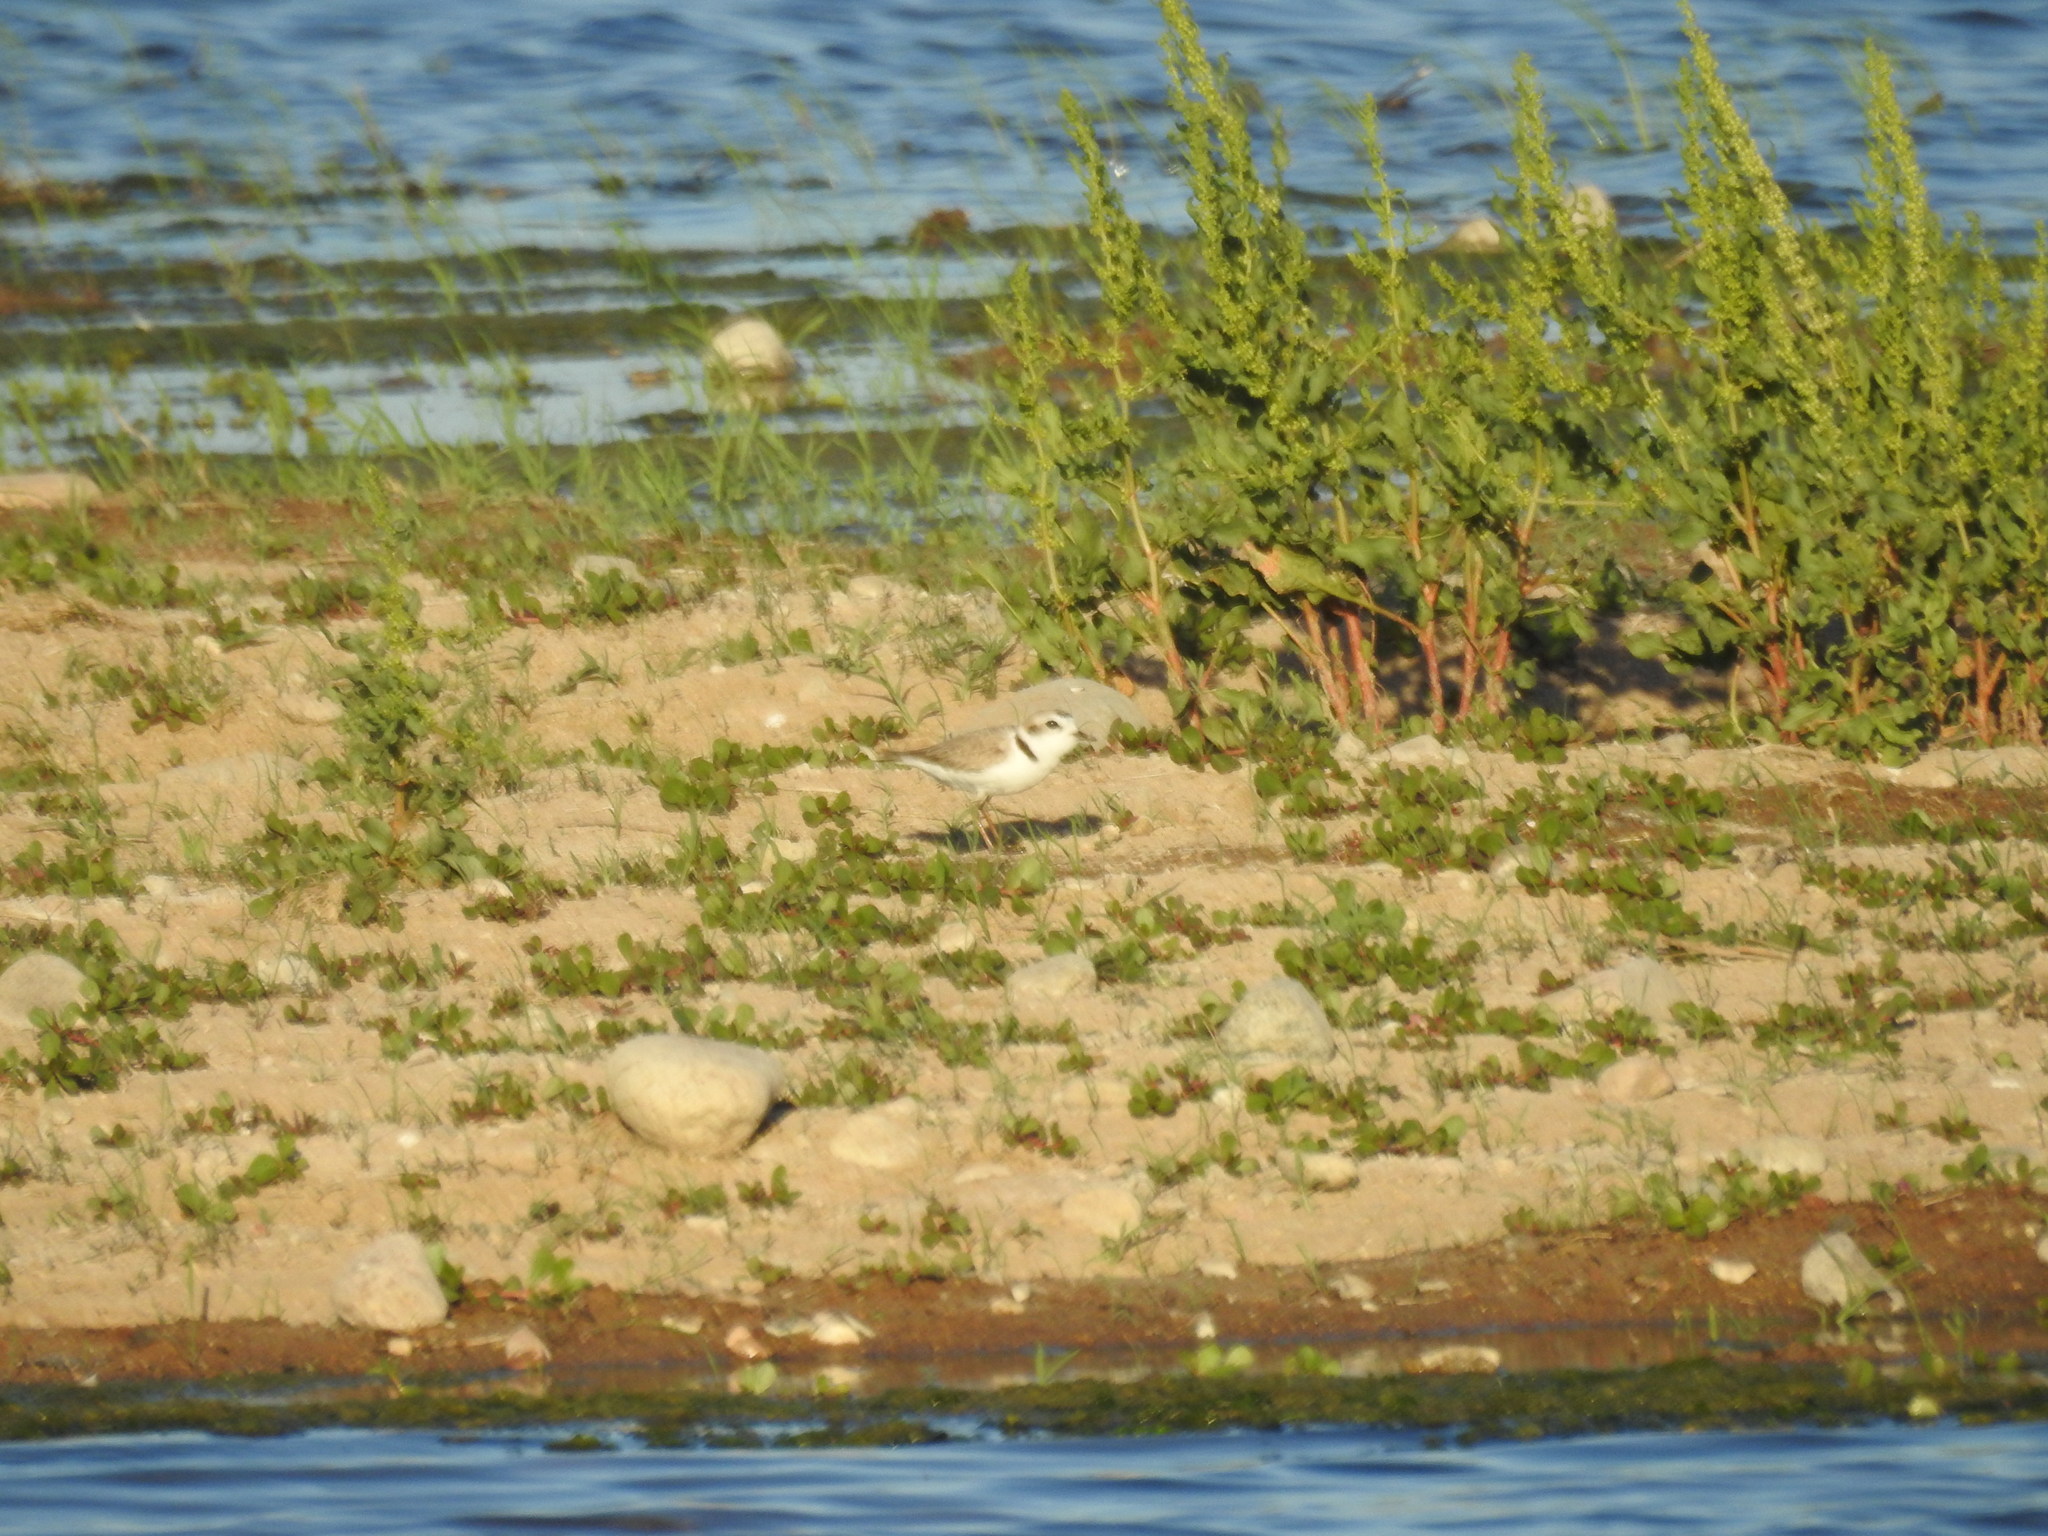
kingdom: Animalia
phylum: Chordata
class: Aves
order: Charadriiformes
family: Charadriidae
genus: Anarhynchus
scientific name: Anarhynchus
